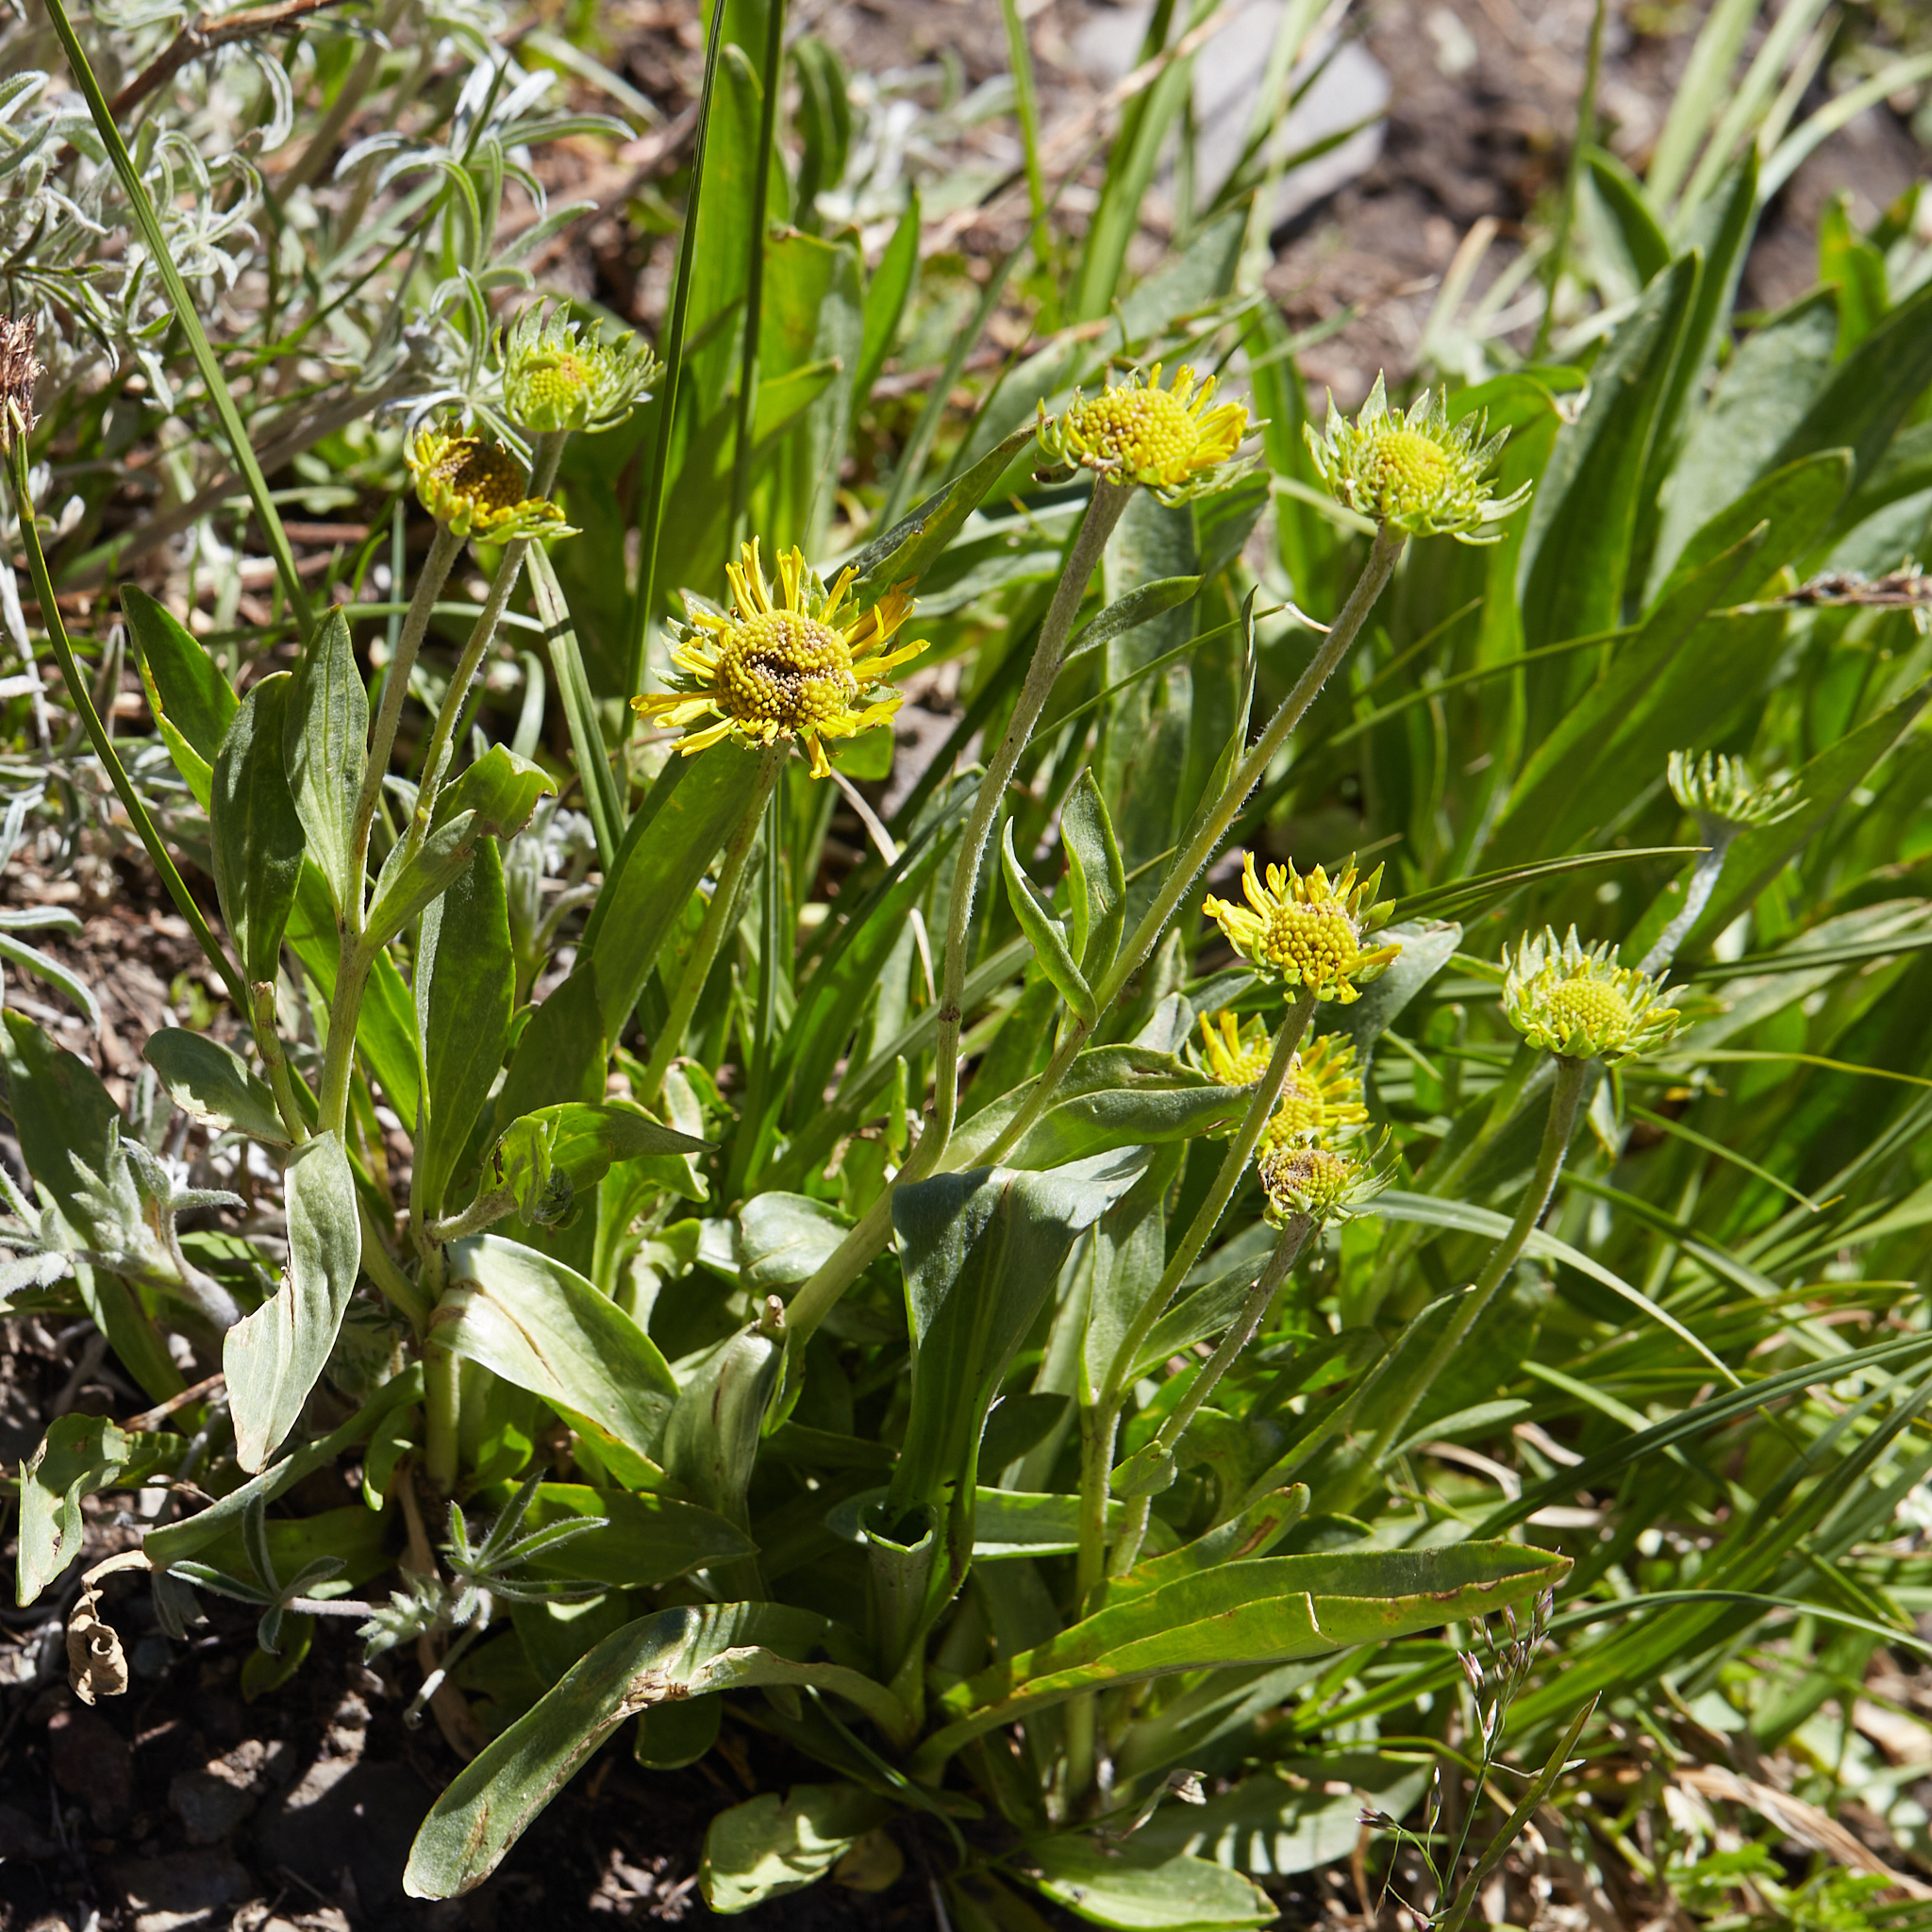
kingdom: Plantae
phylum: Tracheophyta
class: Magnoliopsida
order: Asterales
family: Asteraceae
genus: Hymenoxys
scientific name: Hymenoxys hoopesii
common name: Orange-sneezeweed
